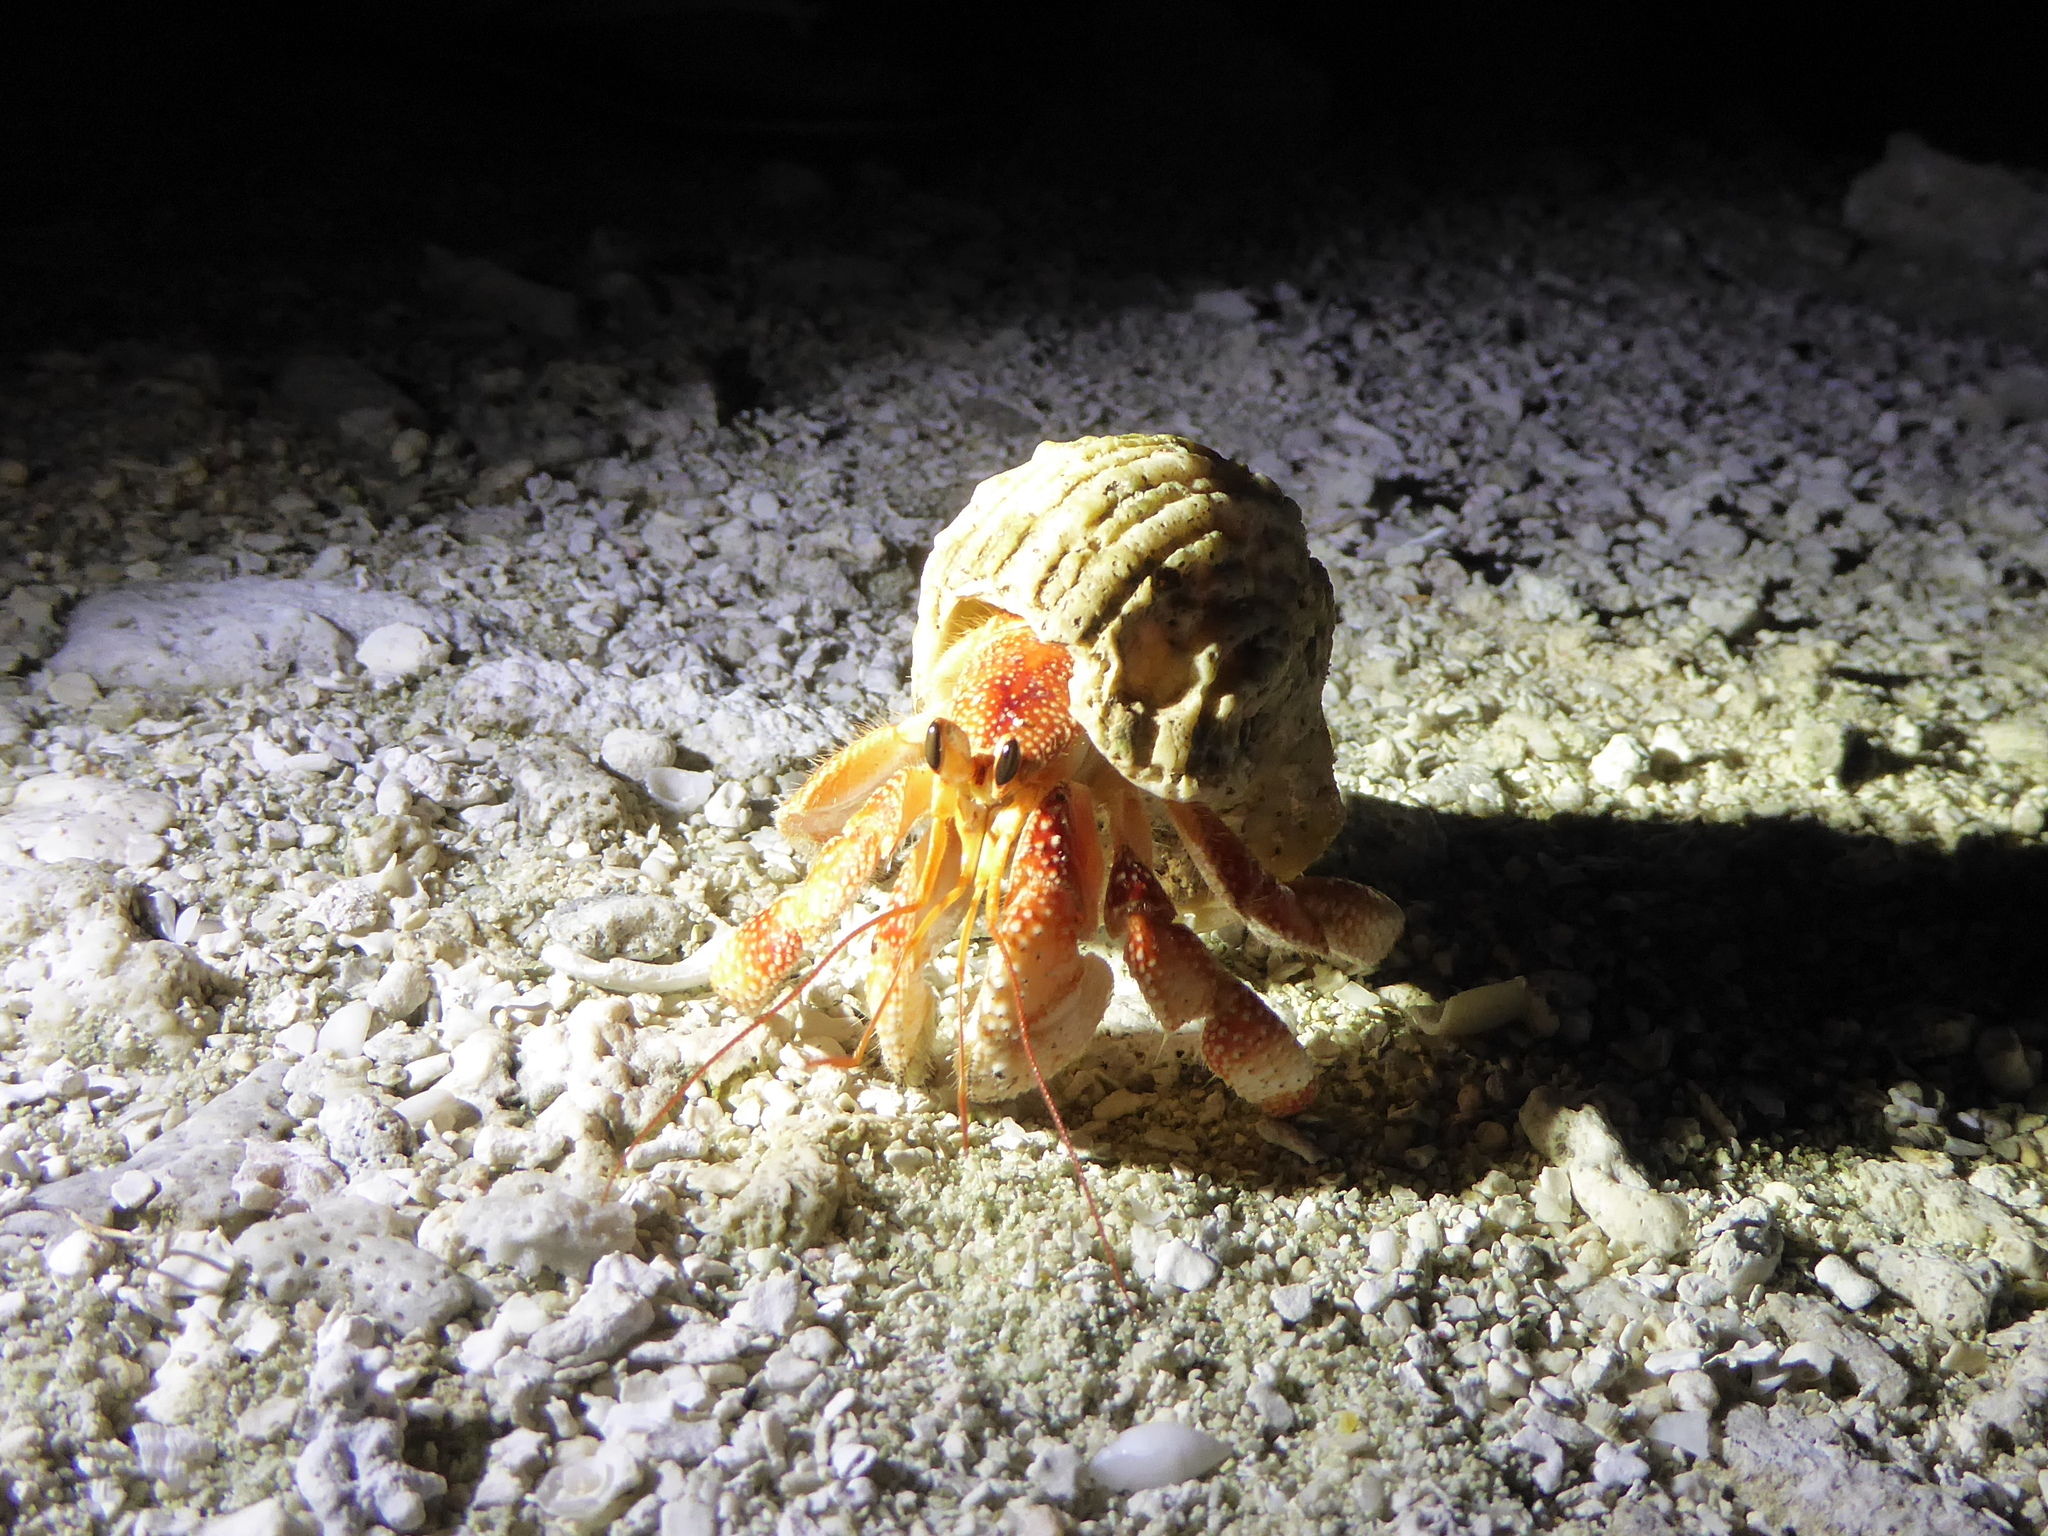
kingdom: Animalia
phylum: Arthropoda
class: Malacostraca
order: Decapoda
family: Coenobitidae
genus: Coenobita
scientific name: Coenobita perlatus
